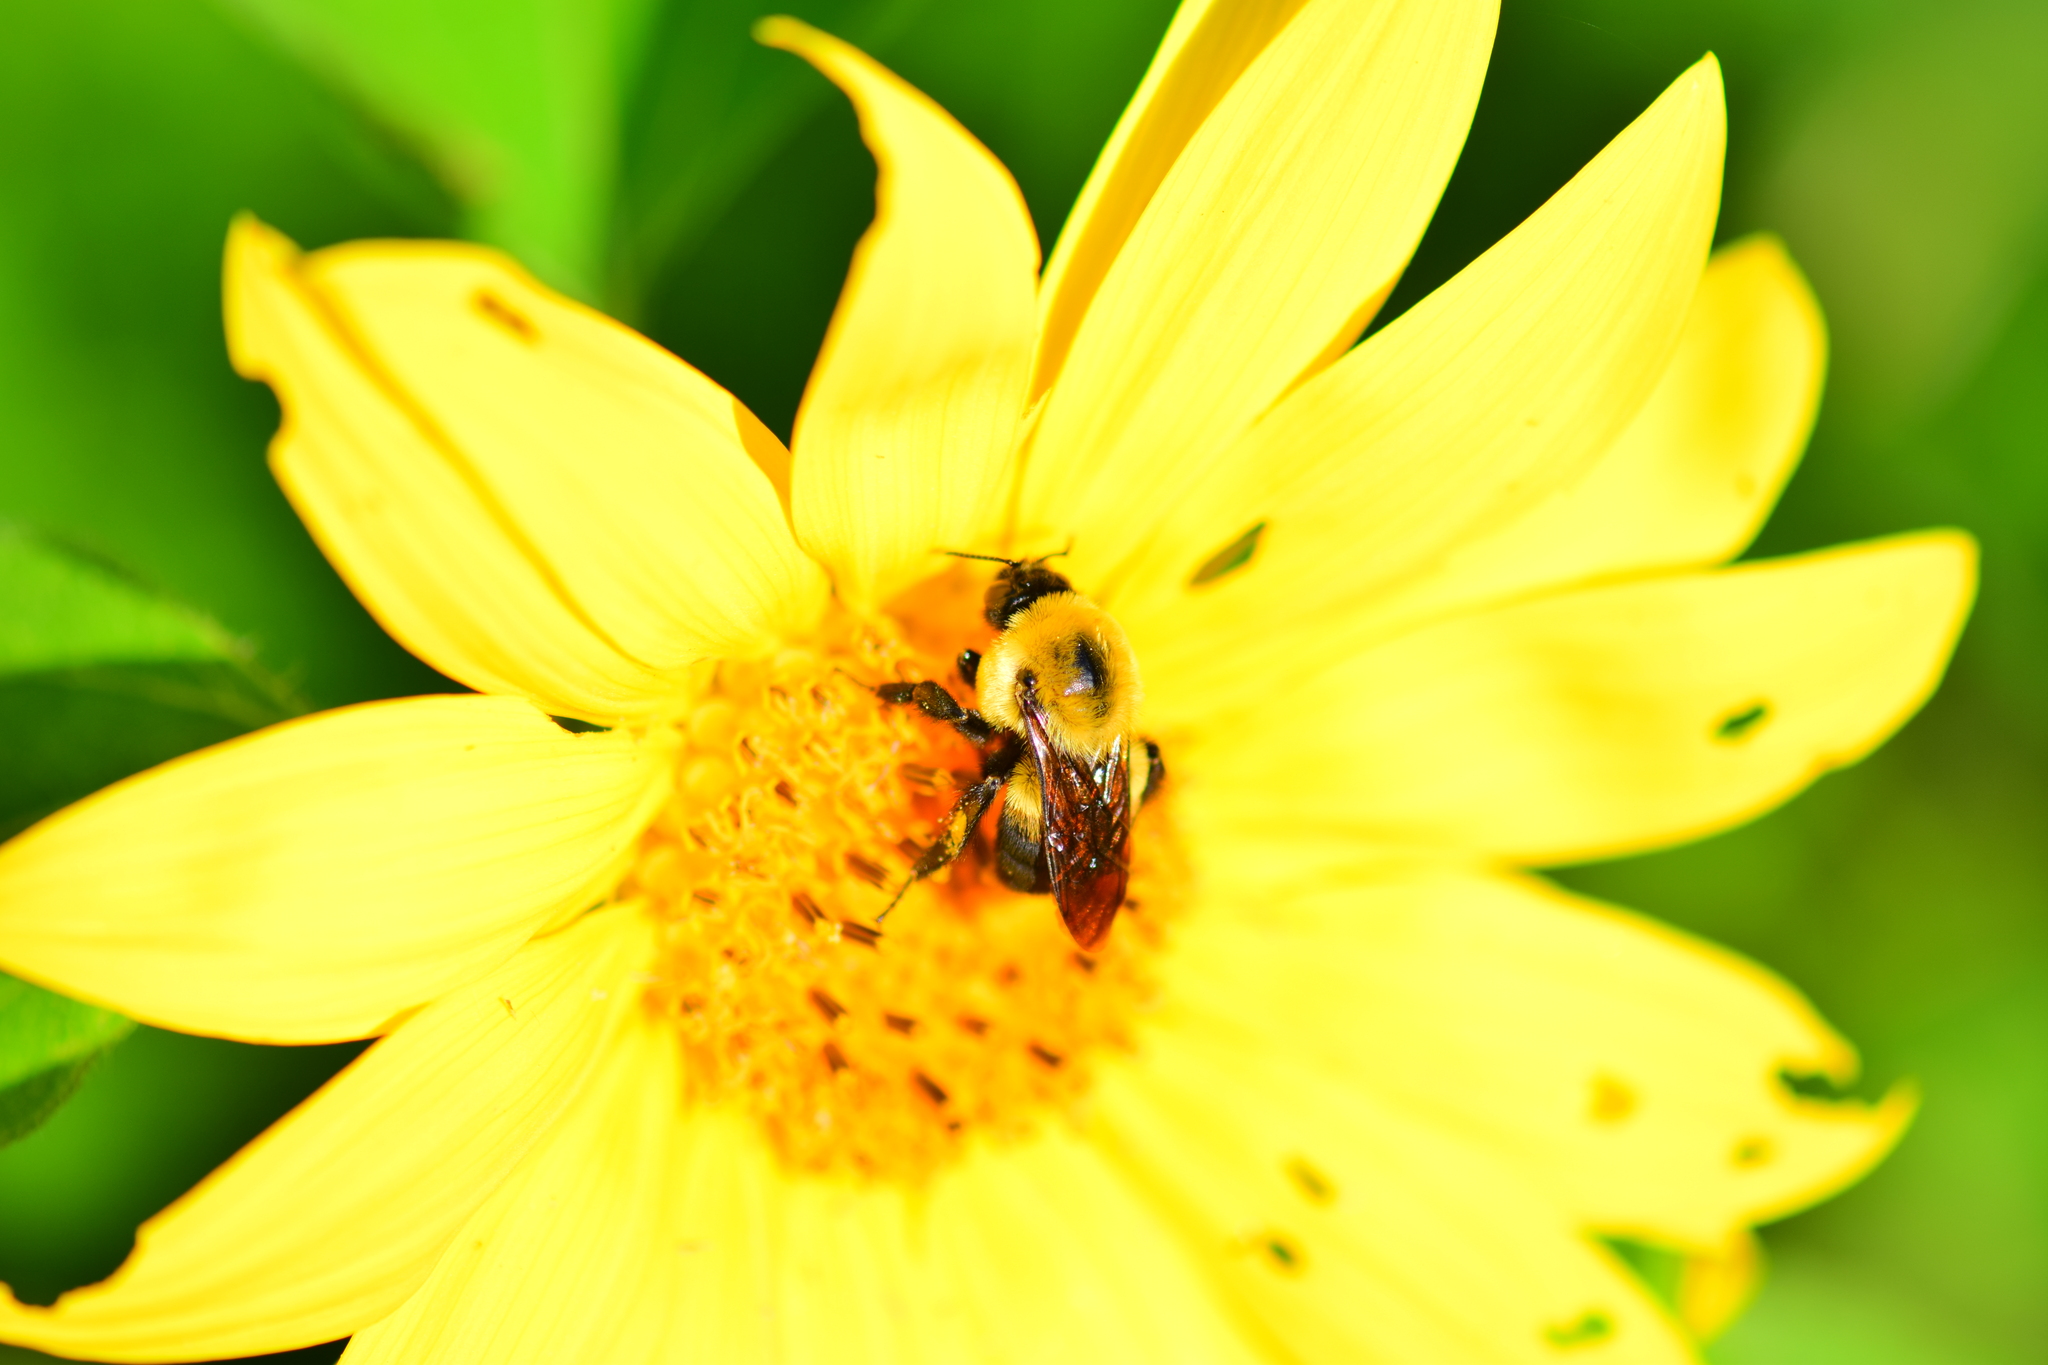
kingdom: Animalia
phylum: Arthropoda
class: Insecta
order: Hymenoptera
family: Apidae
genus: Bombus
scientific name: Bombus griseocollis
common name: Brown-belted bumble bee
